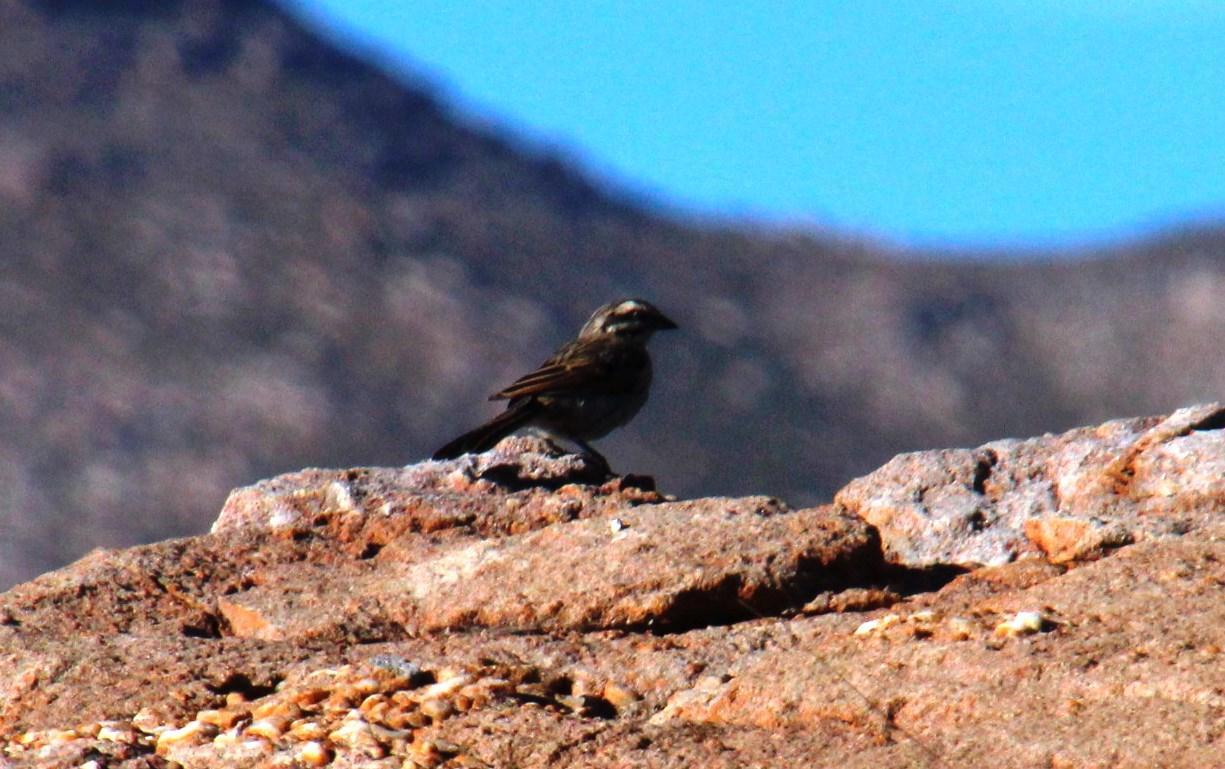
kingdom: Animalia
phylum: Chordata
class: Aves
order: Passeriformes
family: Emberizidae
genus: Emberiza
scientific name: Emberiza capensis
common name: Cape bunting
